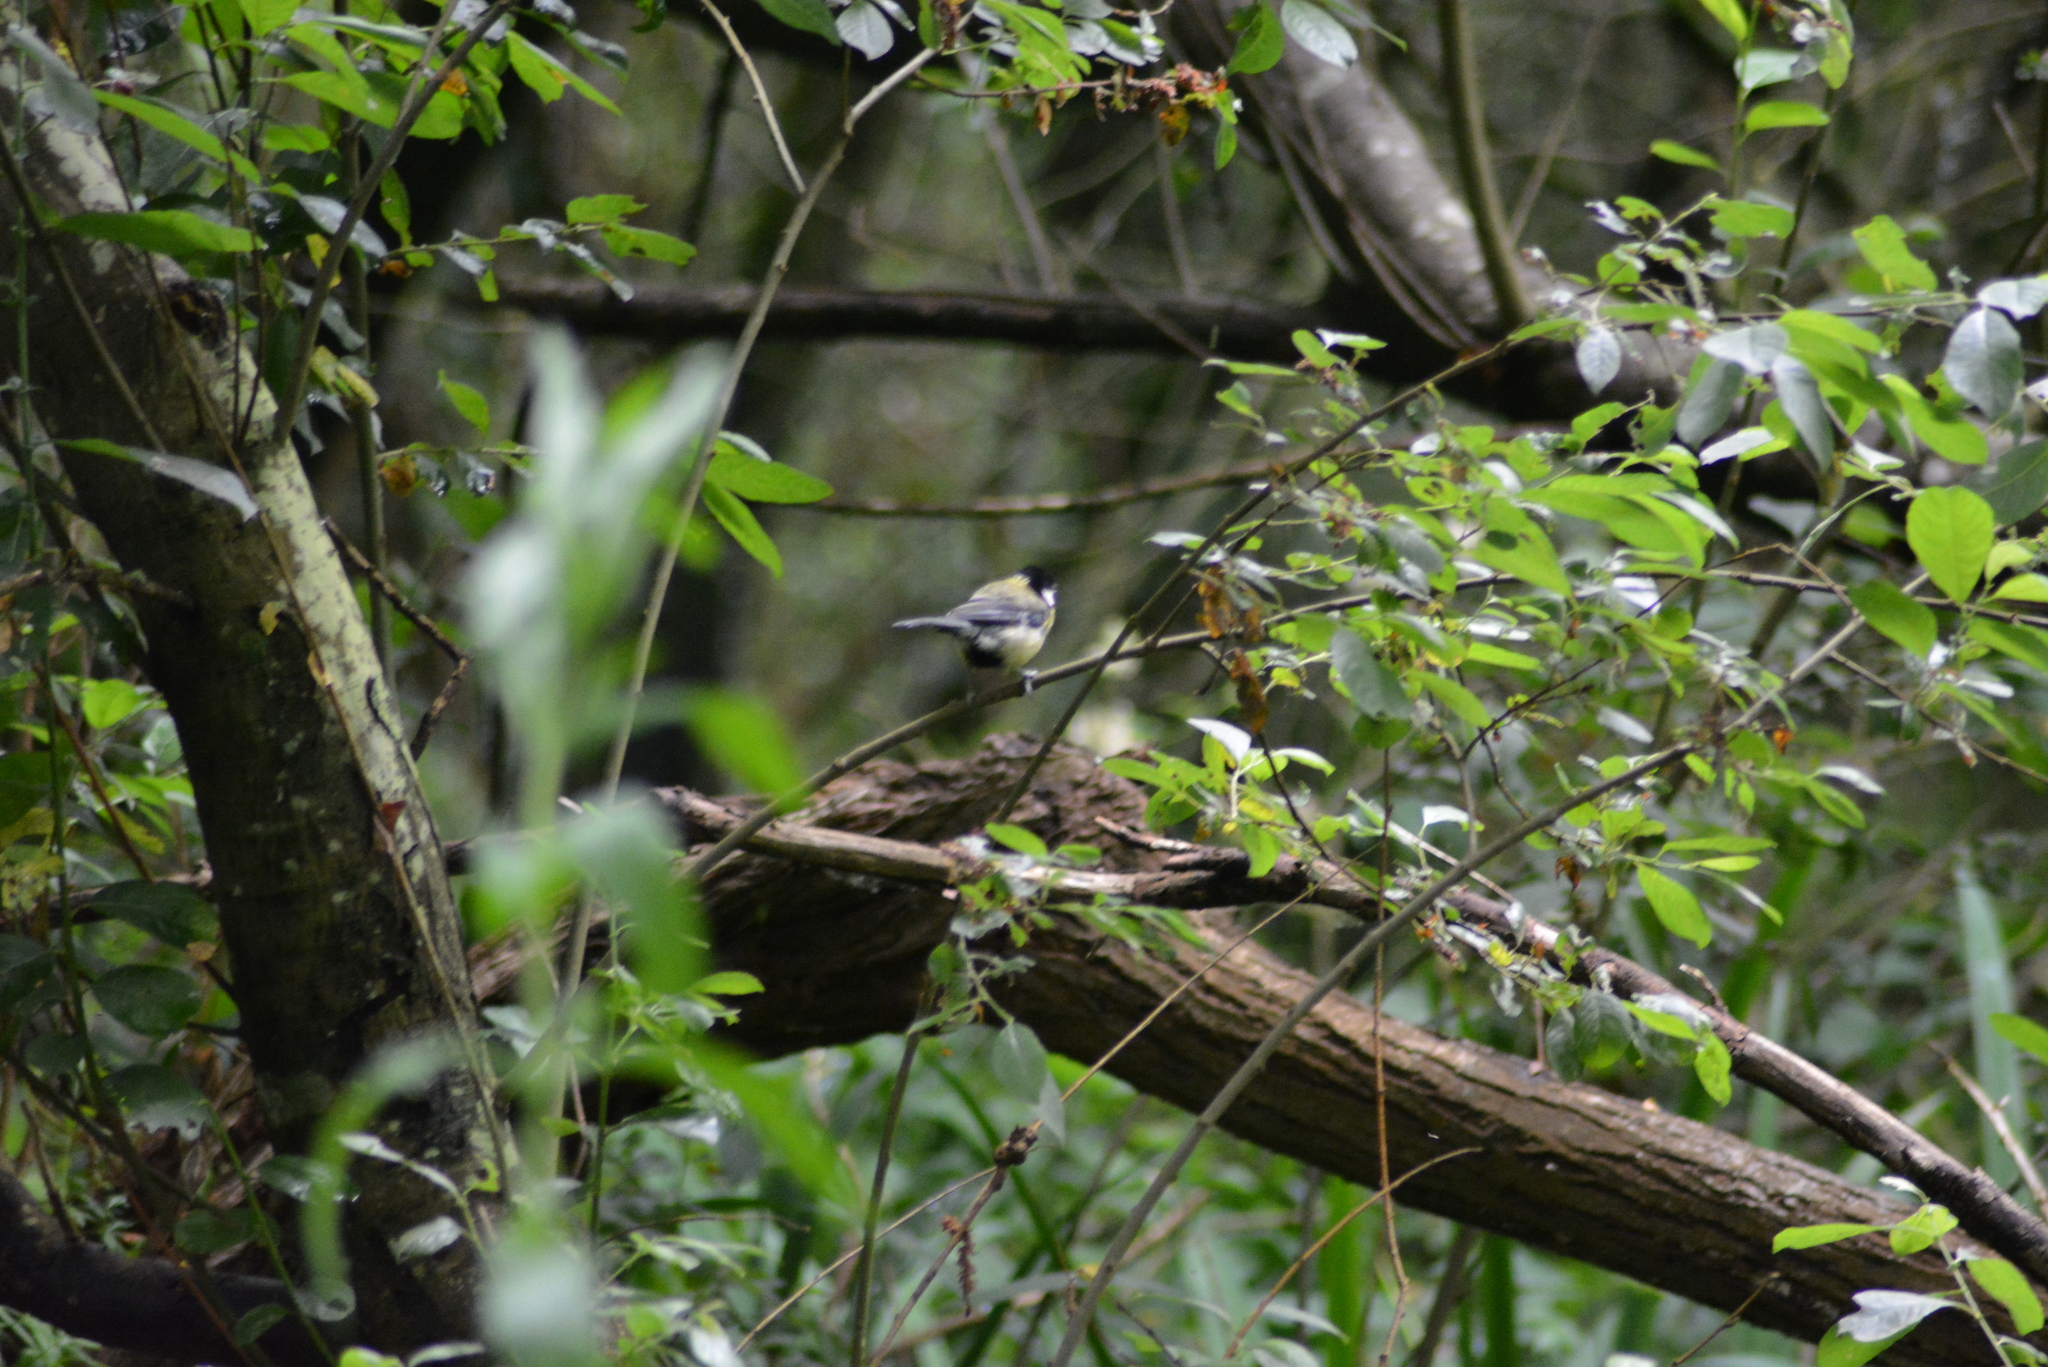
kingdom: Animalia
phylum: Chordata
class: Aves
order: Passeriformes
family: Paridae
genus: Parus
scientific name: Parus major
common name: Great tit
